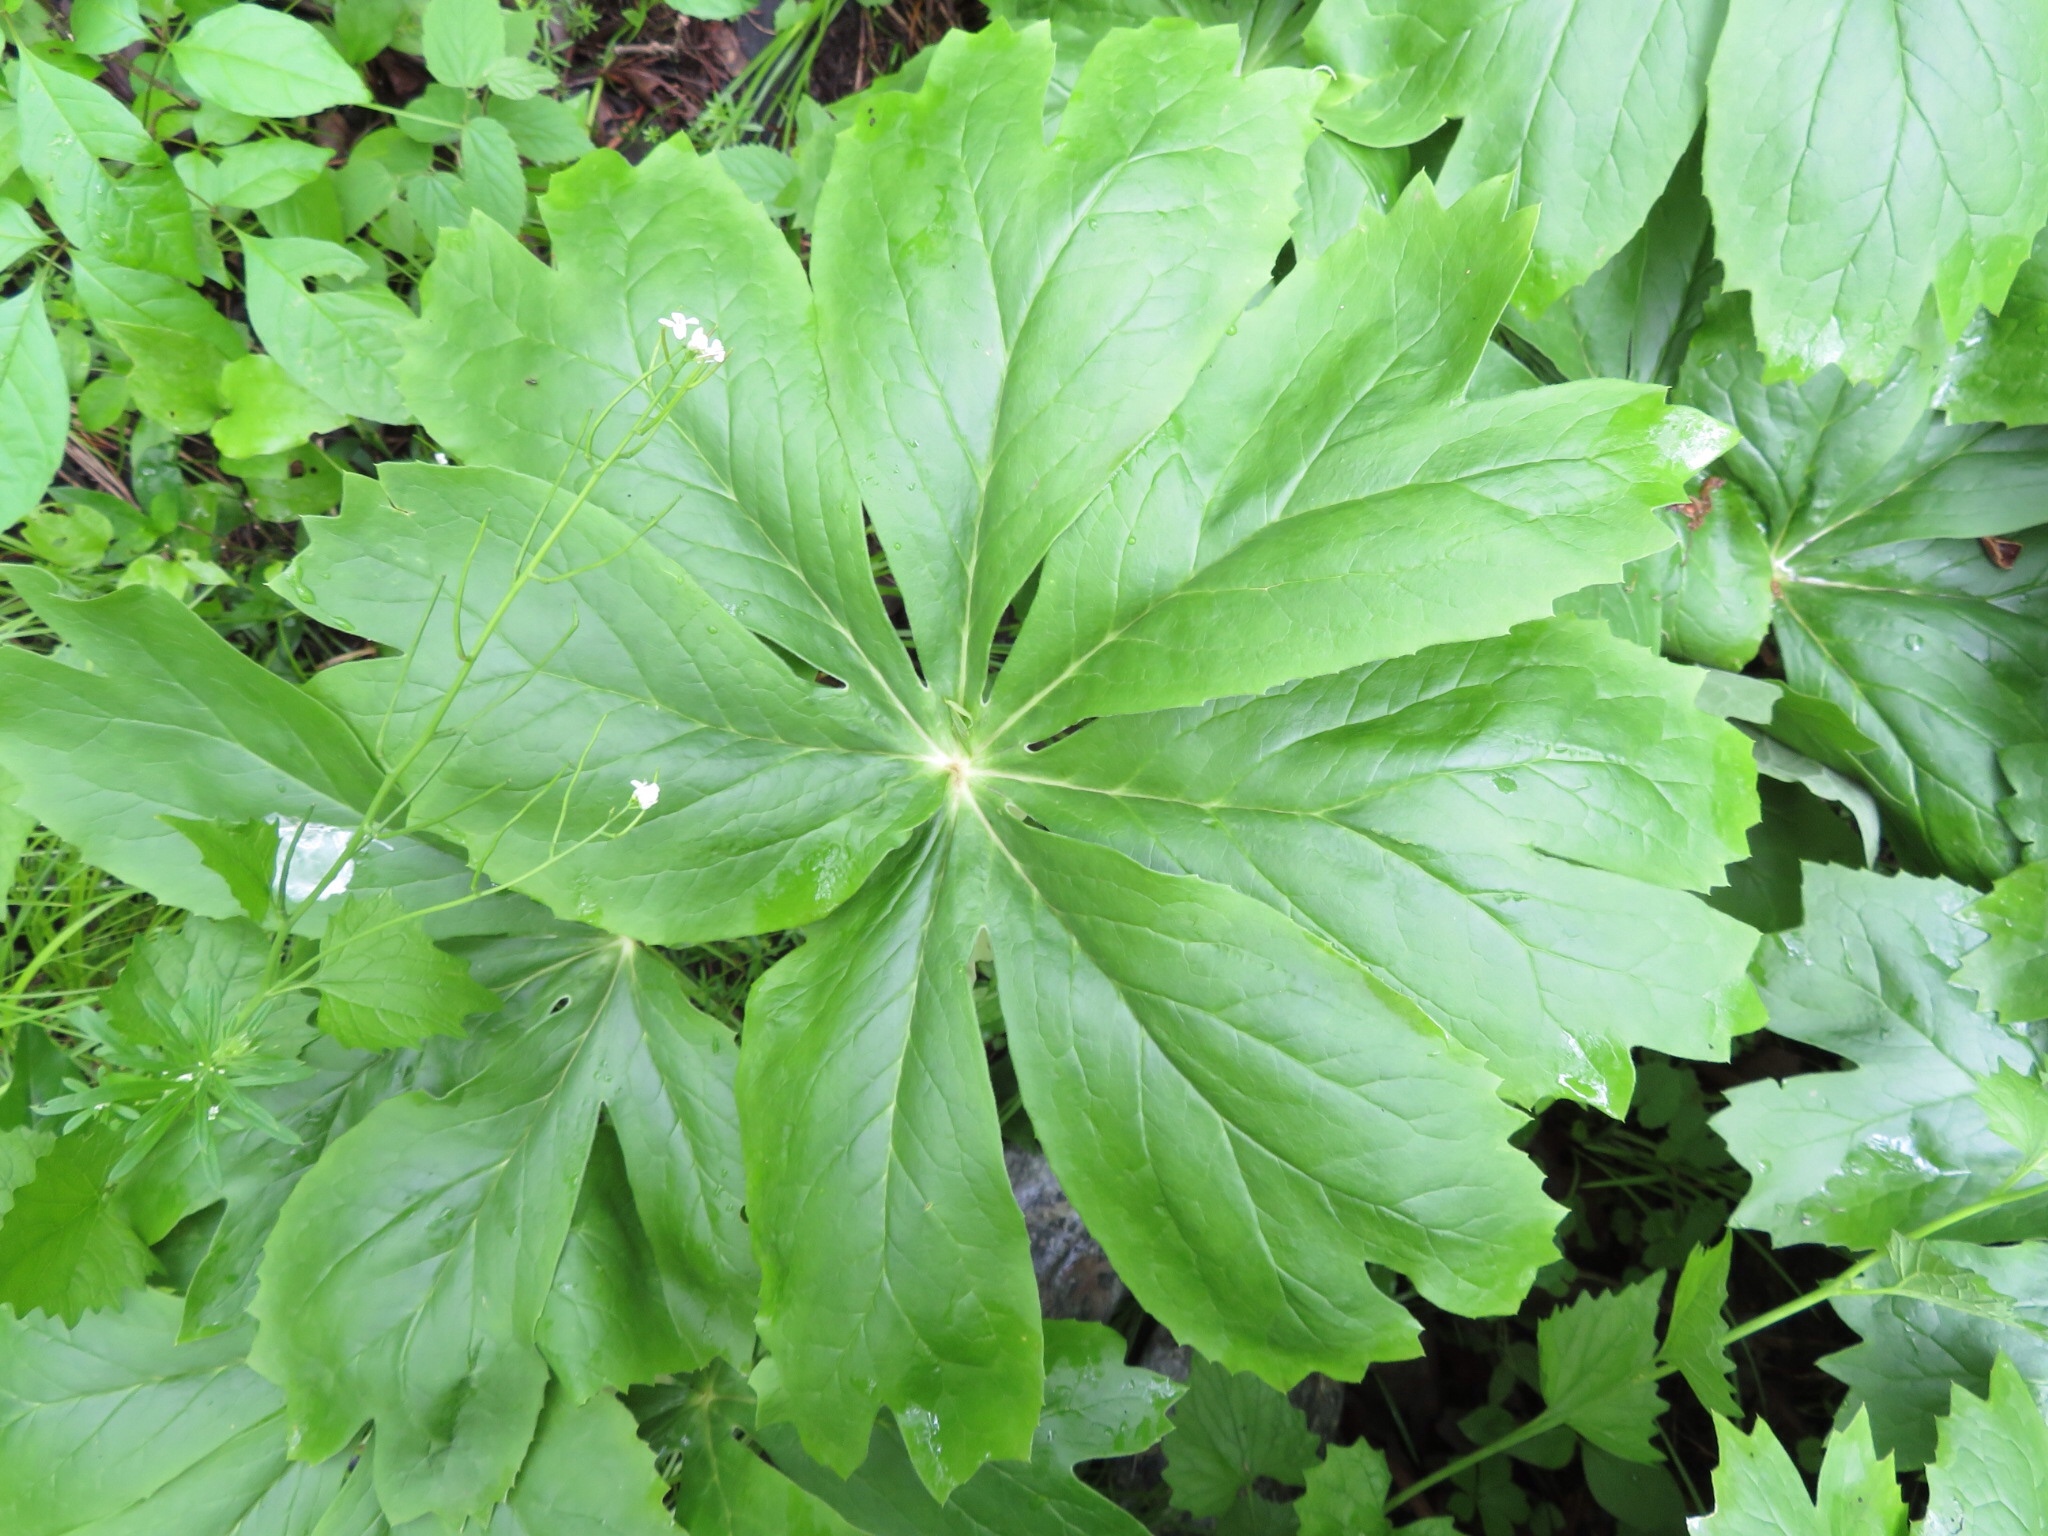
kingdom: Plantae
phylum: Tracheophyta
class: Magnoliopsida
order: Ranunculales
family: Berberidaceae
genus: Podophyllum
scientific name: Podophyllum peltatum
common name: Wild mandrake
